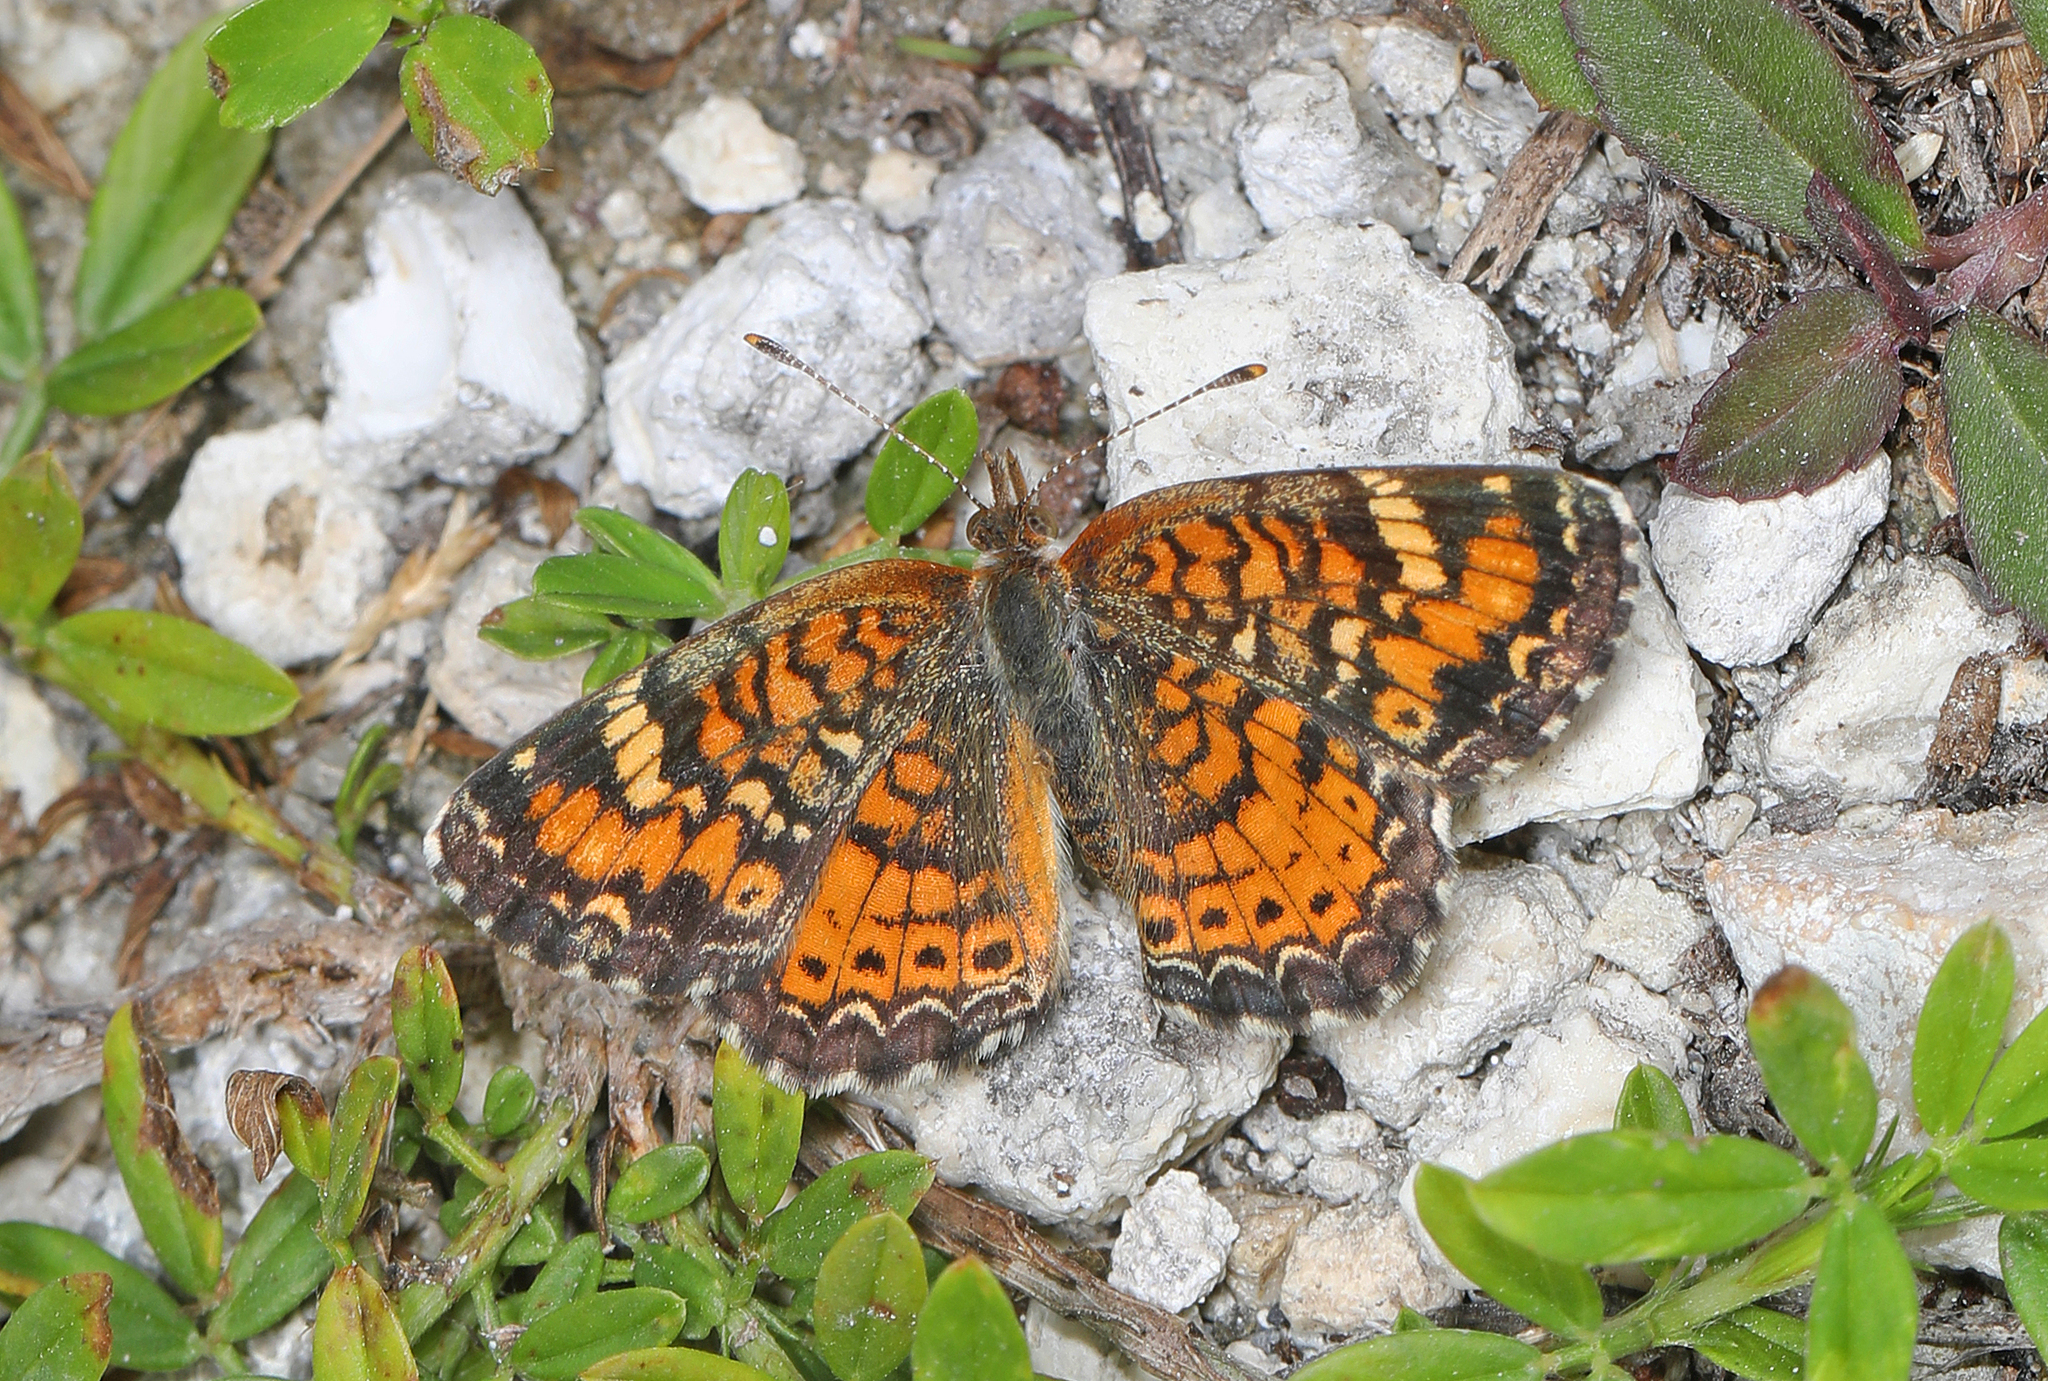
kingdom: Animalia
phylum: Arthropoda
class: Insecta
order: Lepidoptera
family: Nymphalidae
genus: Phyciodes
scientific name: Phyciodes phaon
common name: Phaon crescent
